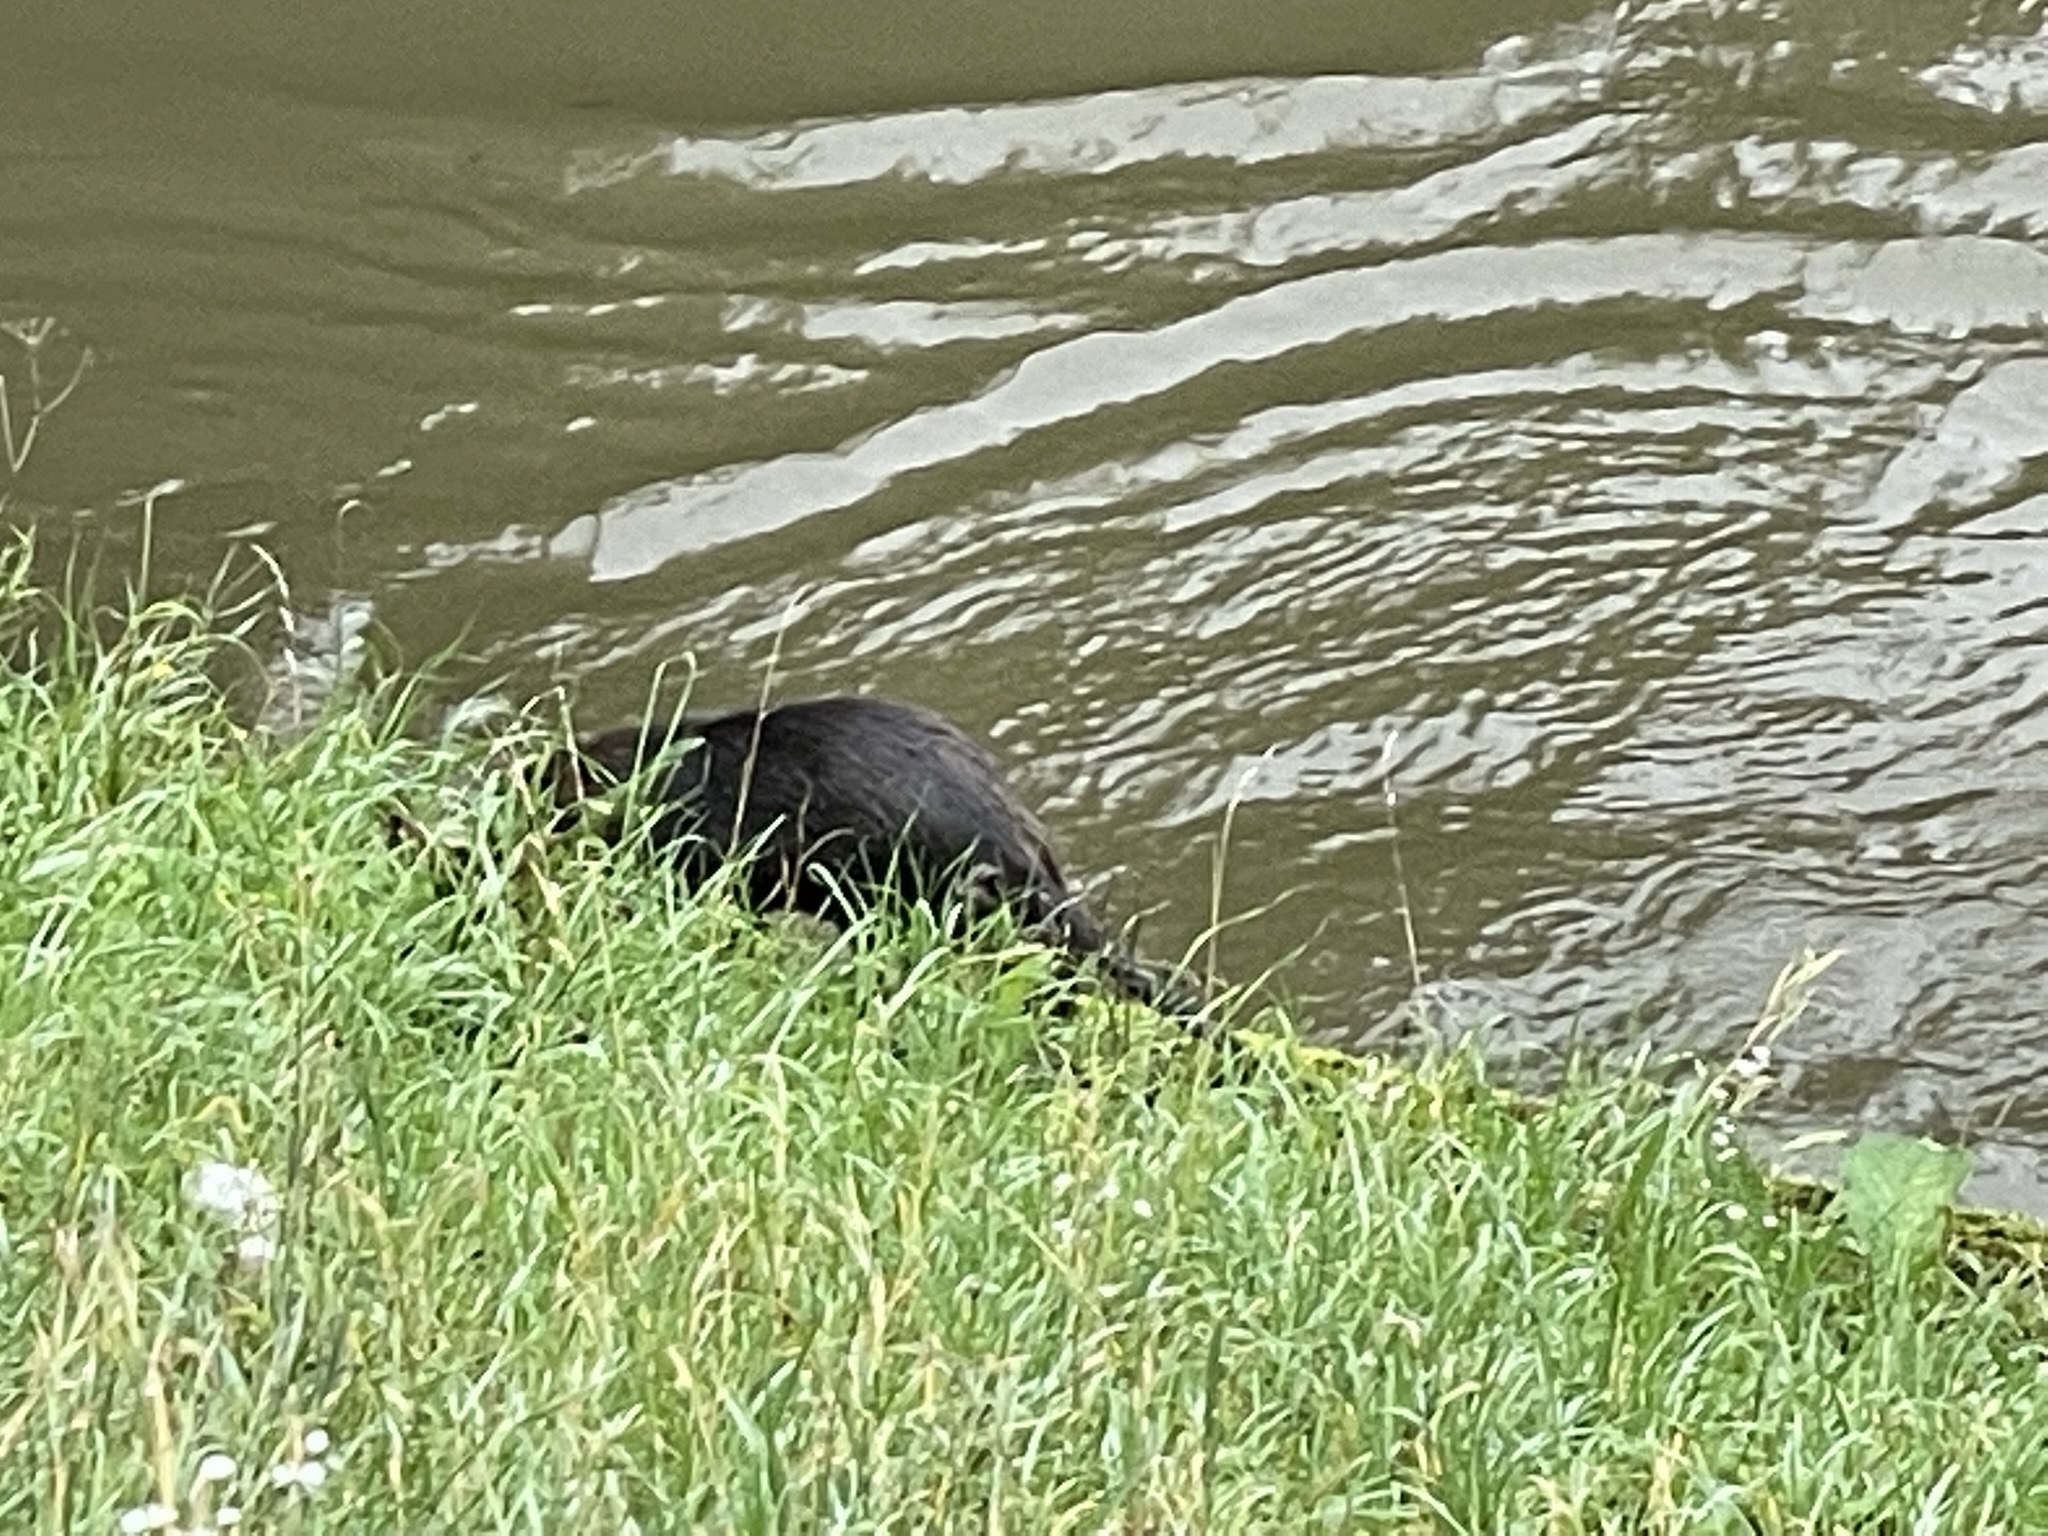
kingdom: Animalia
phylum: Chordata
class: Mammalia
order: Rodentia
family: Myocastoridae
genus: Myocastor
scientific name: Myocastor coypus
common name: Coypu
